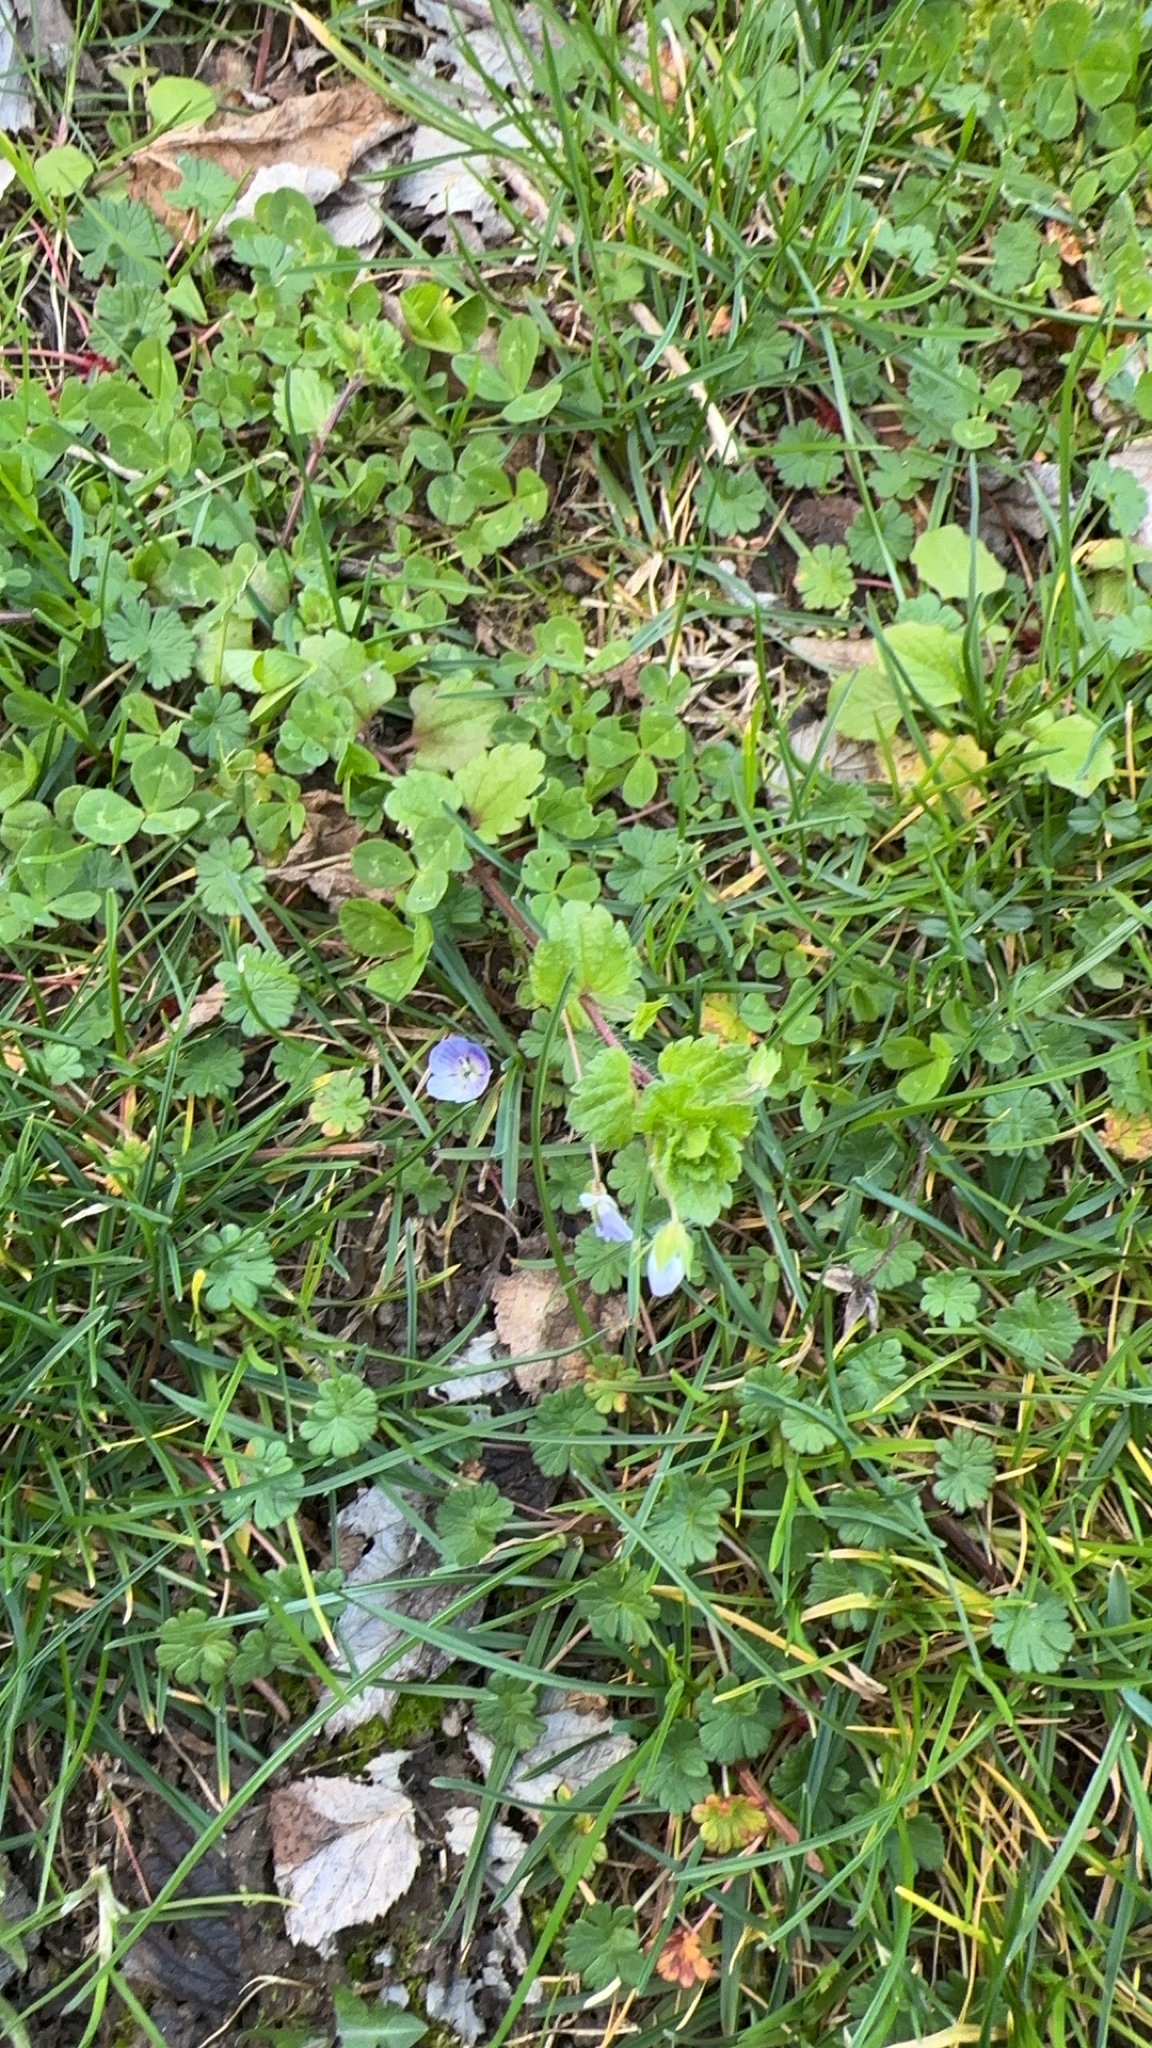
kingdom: Plantae
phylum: Tracheophyta
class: Magnoliopsida
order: Lamiales
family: Plantaginaceae
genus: Veronica
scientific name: Veronica persica
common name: Common field-speedwell
